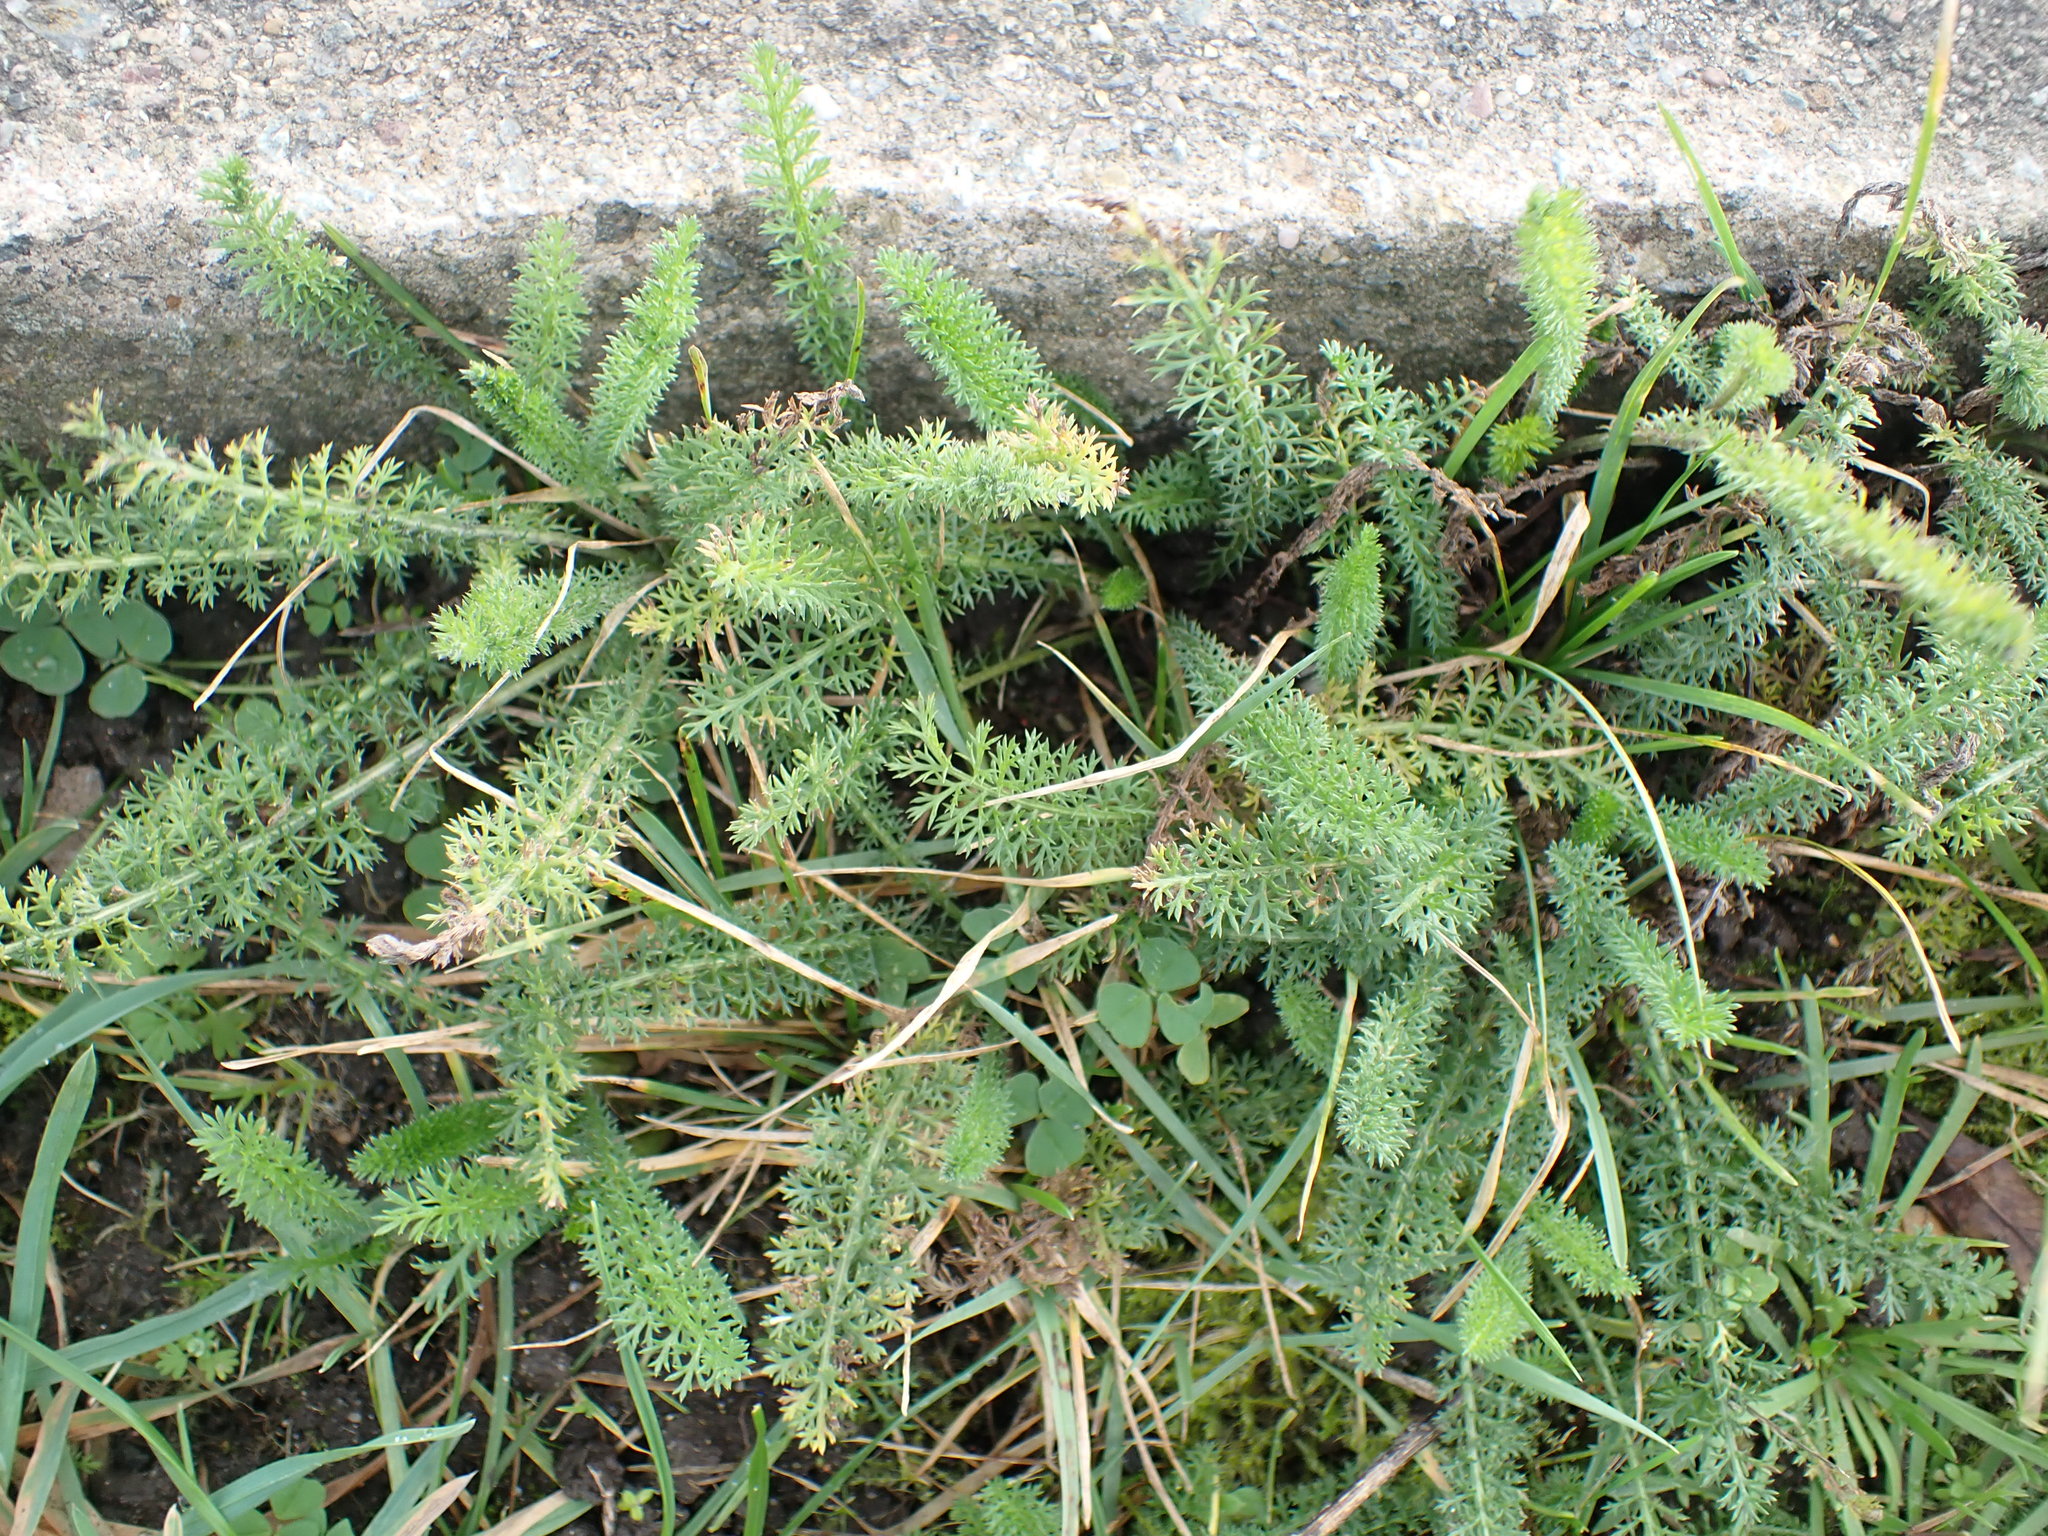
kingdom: Plantae
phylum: Tracheophyta
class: Magnoliopsida
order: Asterales
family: Asteraceae
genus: Achillea
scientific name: Achillea millefolium
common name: Yarrow
